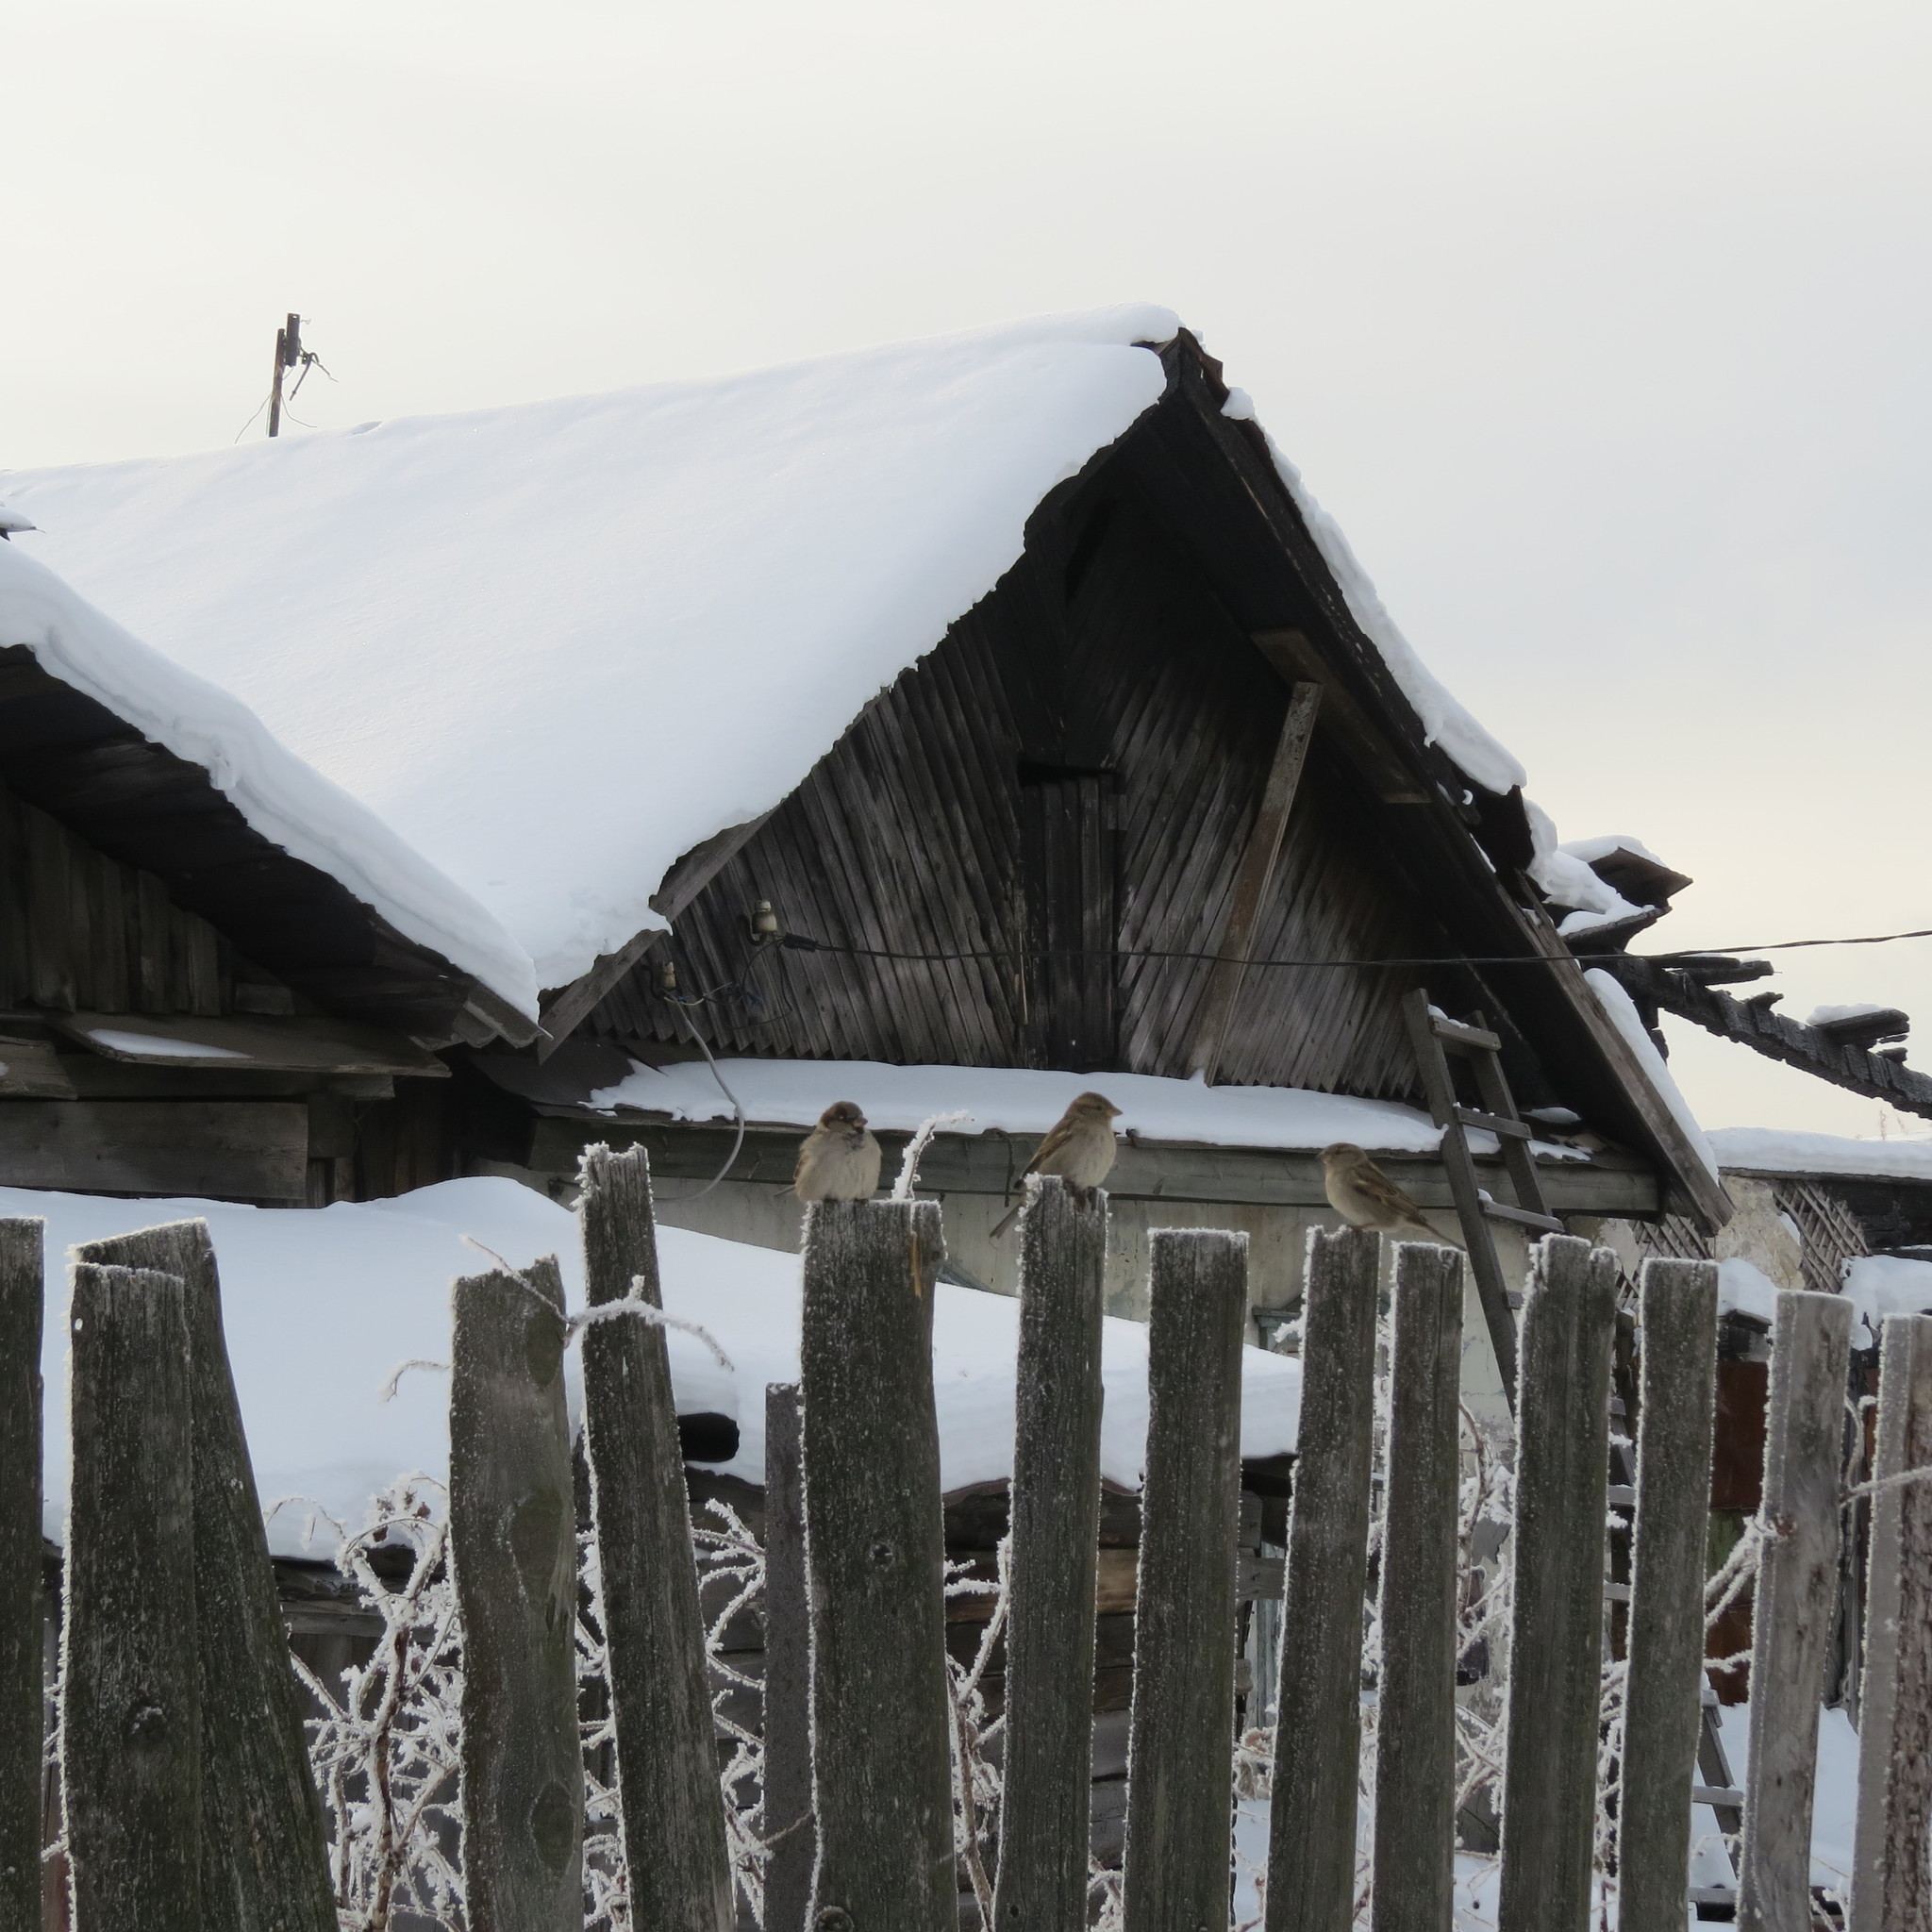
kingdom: Animalia
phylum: Chordata
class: Aves
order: Passeriformes
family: Passeridae
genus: Passer
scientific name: Passer domesticus
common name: House sparrow
